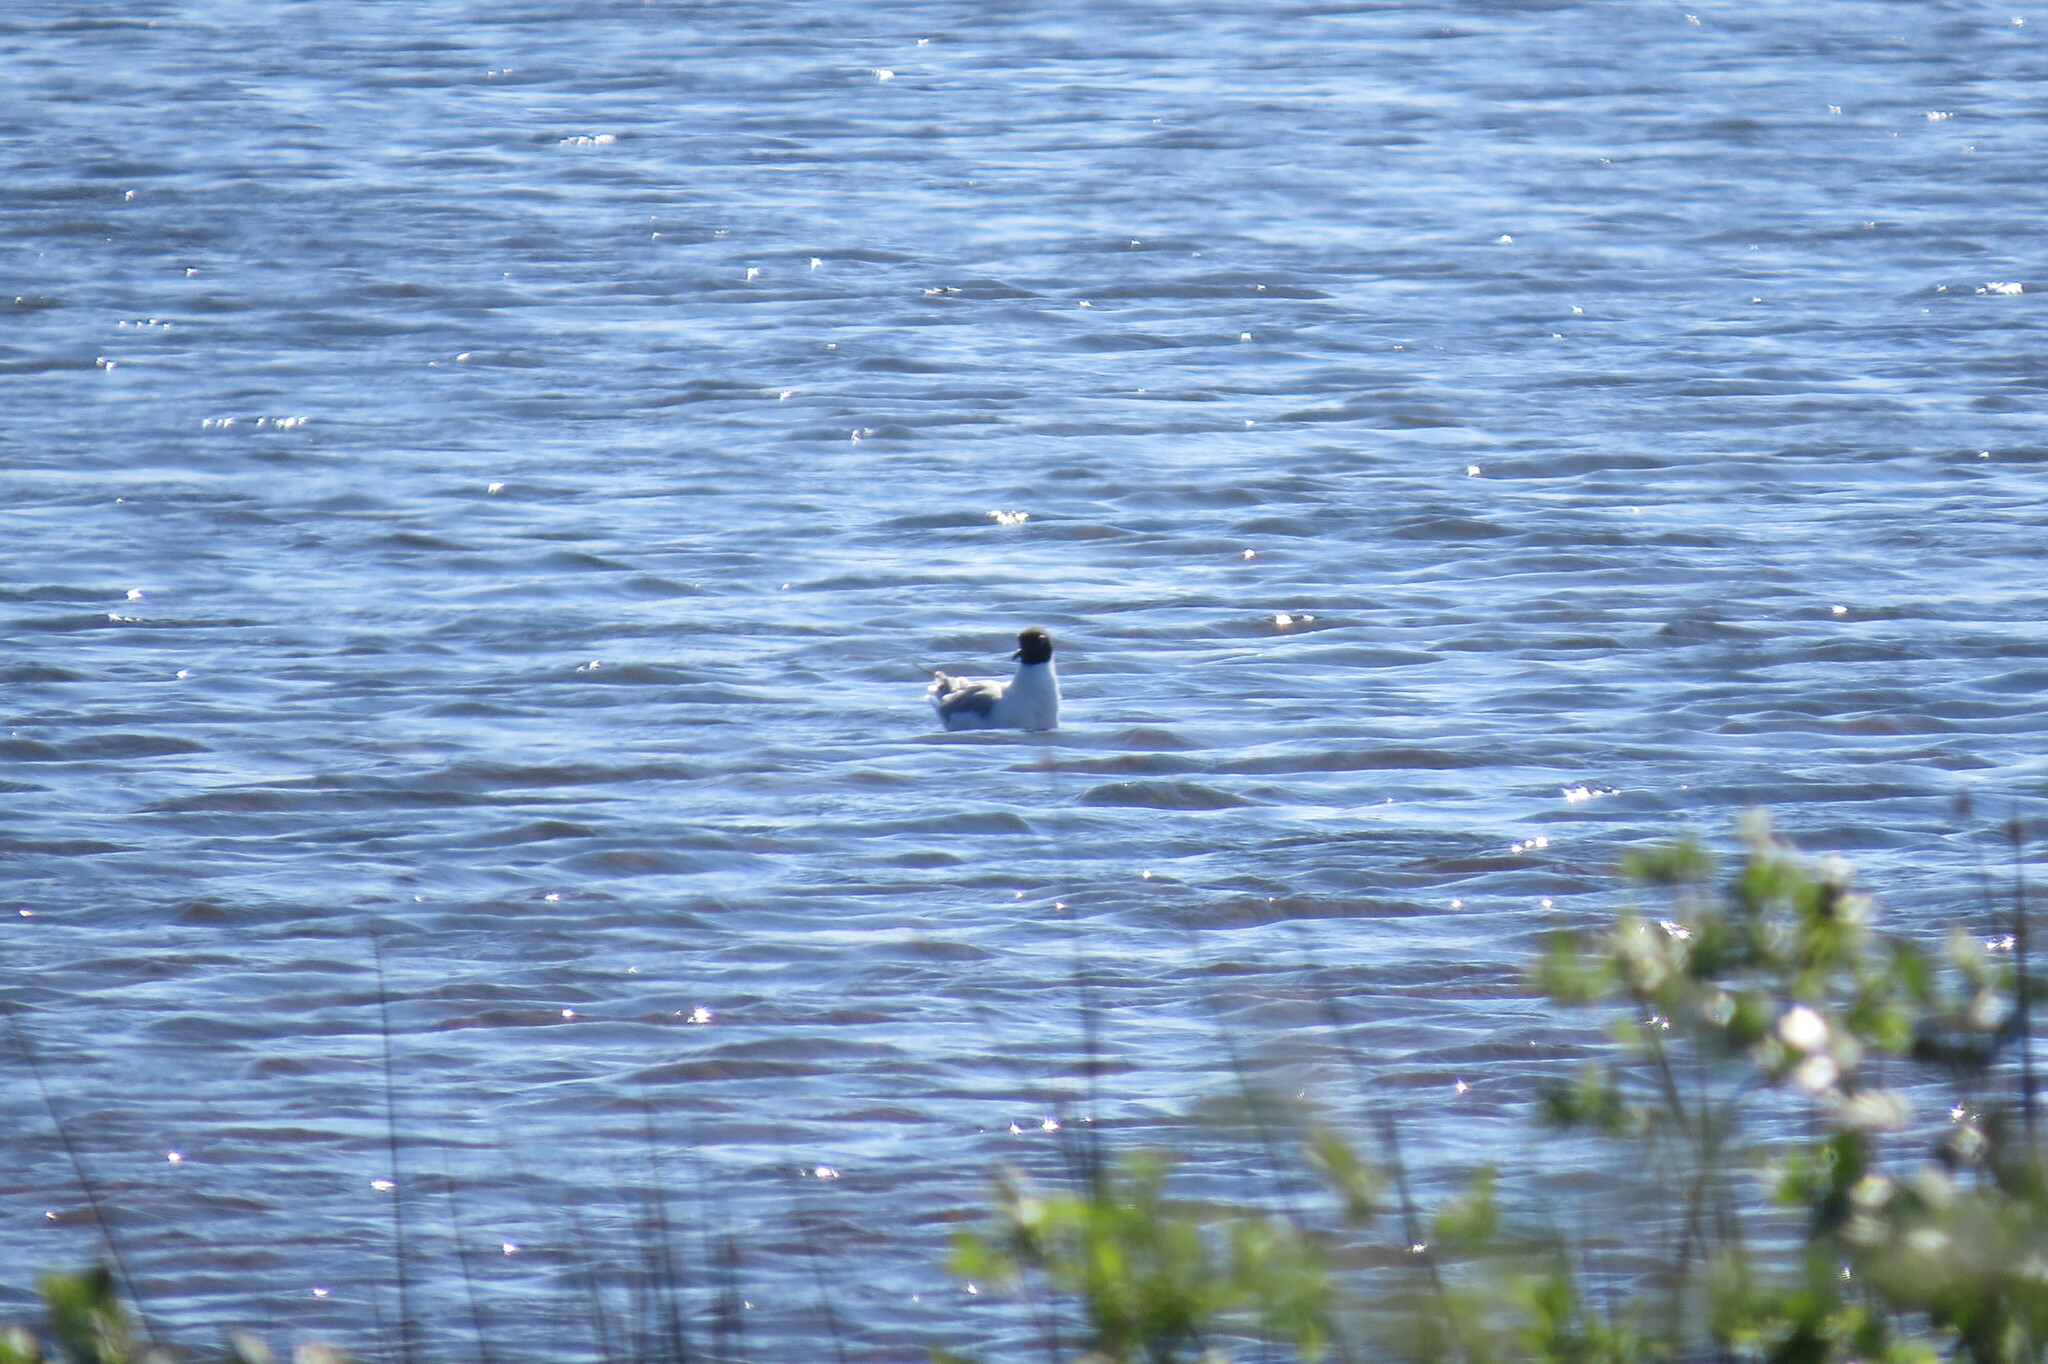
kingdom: Animalia
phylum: Chordata
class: Aves
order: Charadriiformes
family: Laridae
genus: Chroicocephalus
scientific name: Chroicocephalus philadelphia
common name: Bonaparte's gull
